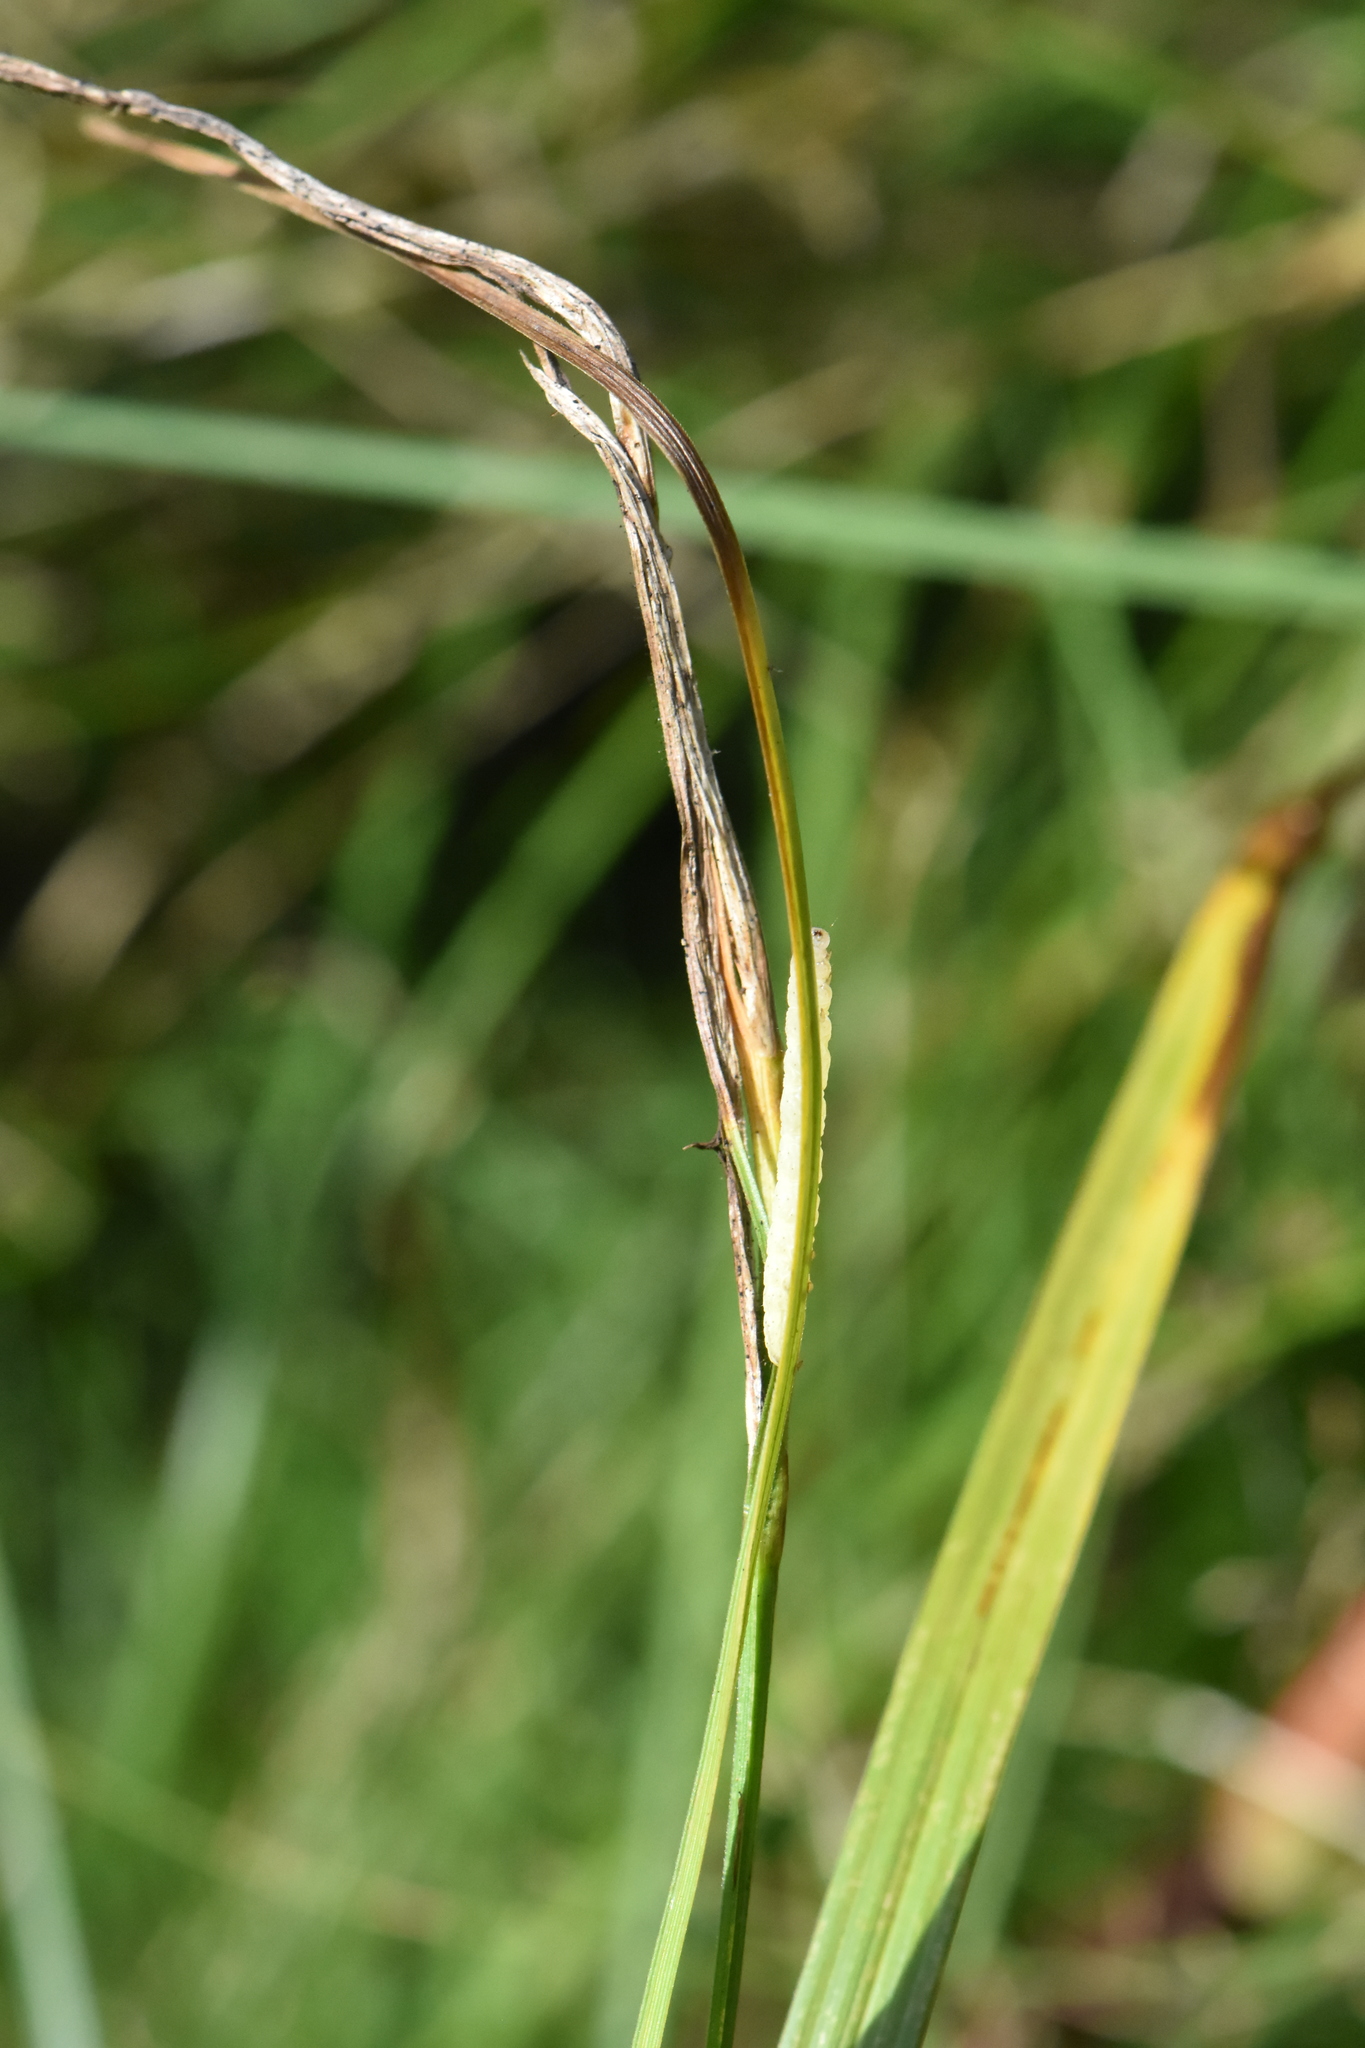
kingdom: Plantae
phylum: Tracheophyta
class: Liliopsida
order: Poales
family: Cyperaceae
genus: Carex
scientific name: Carex vesicaria
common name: Bladder-sedge
